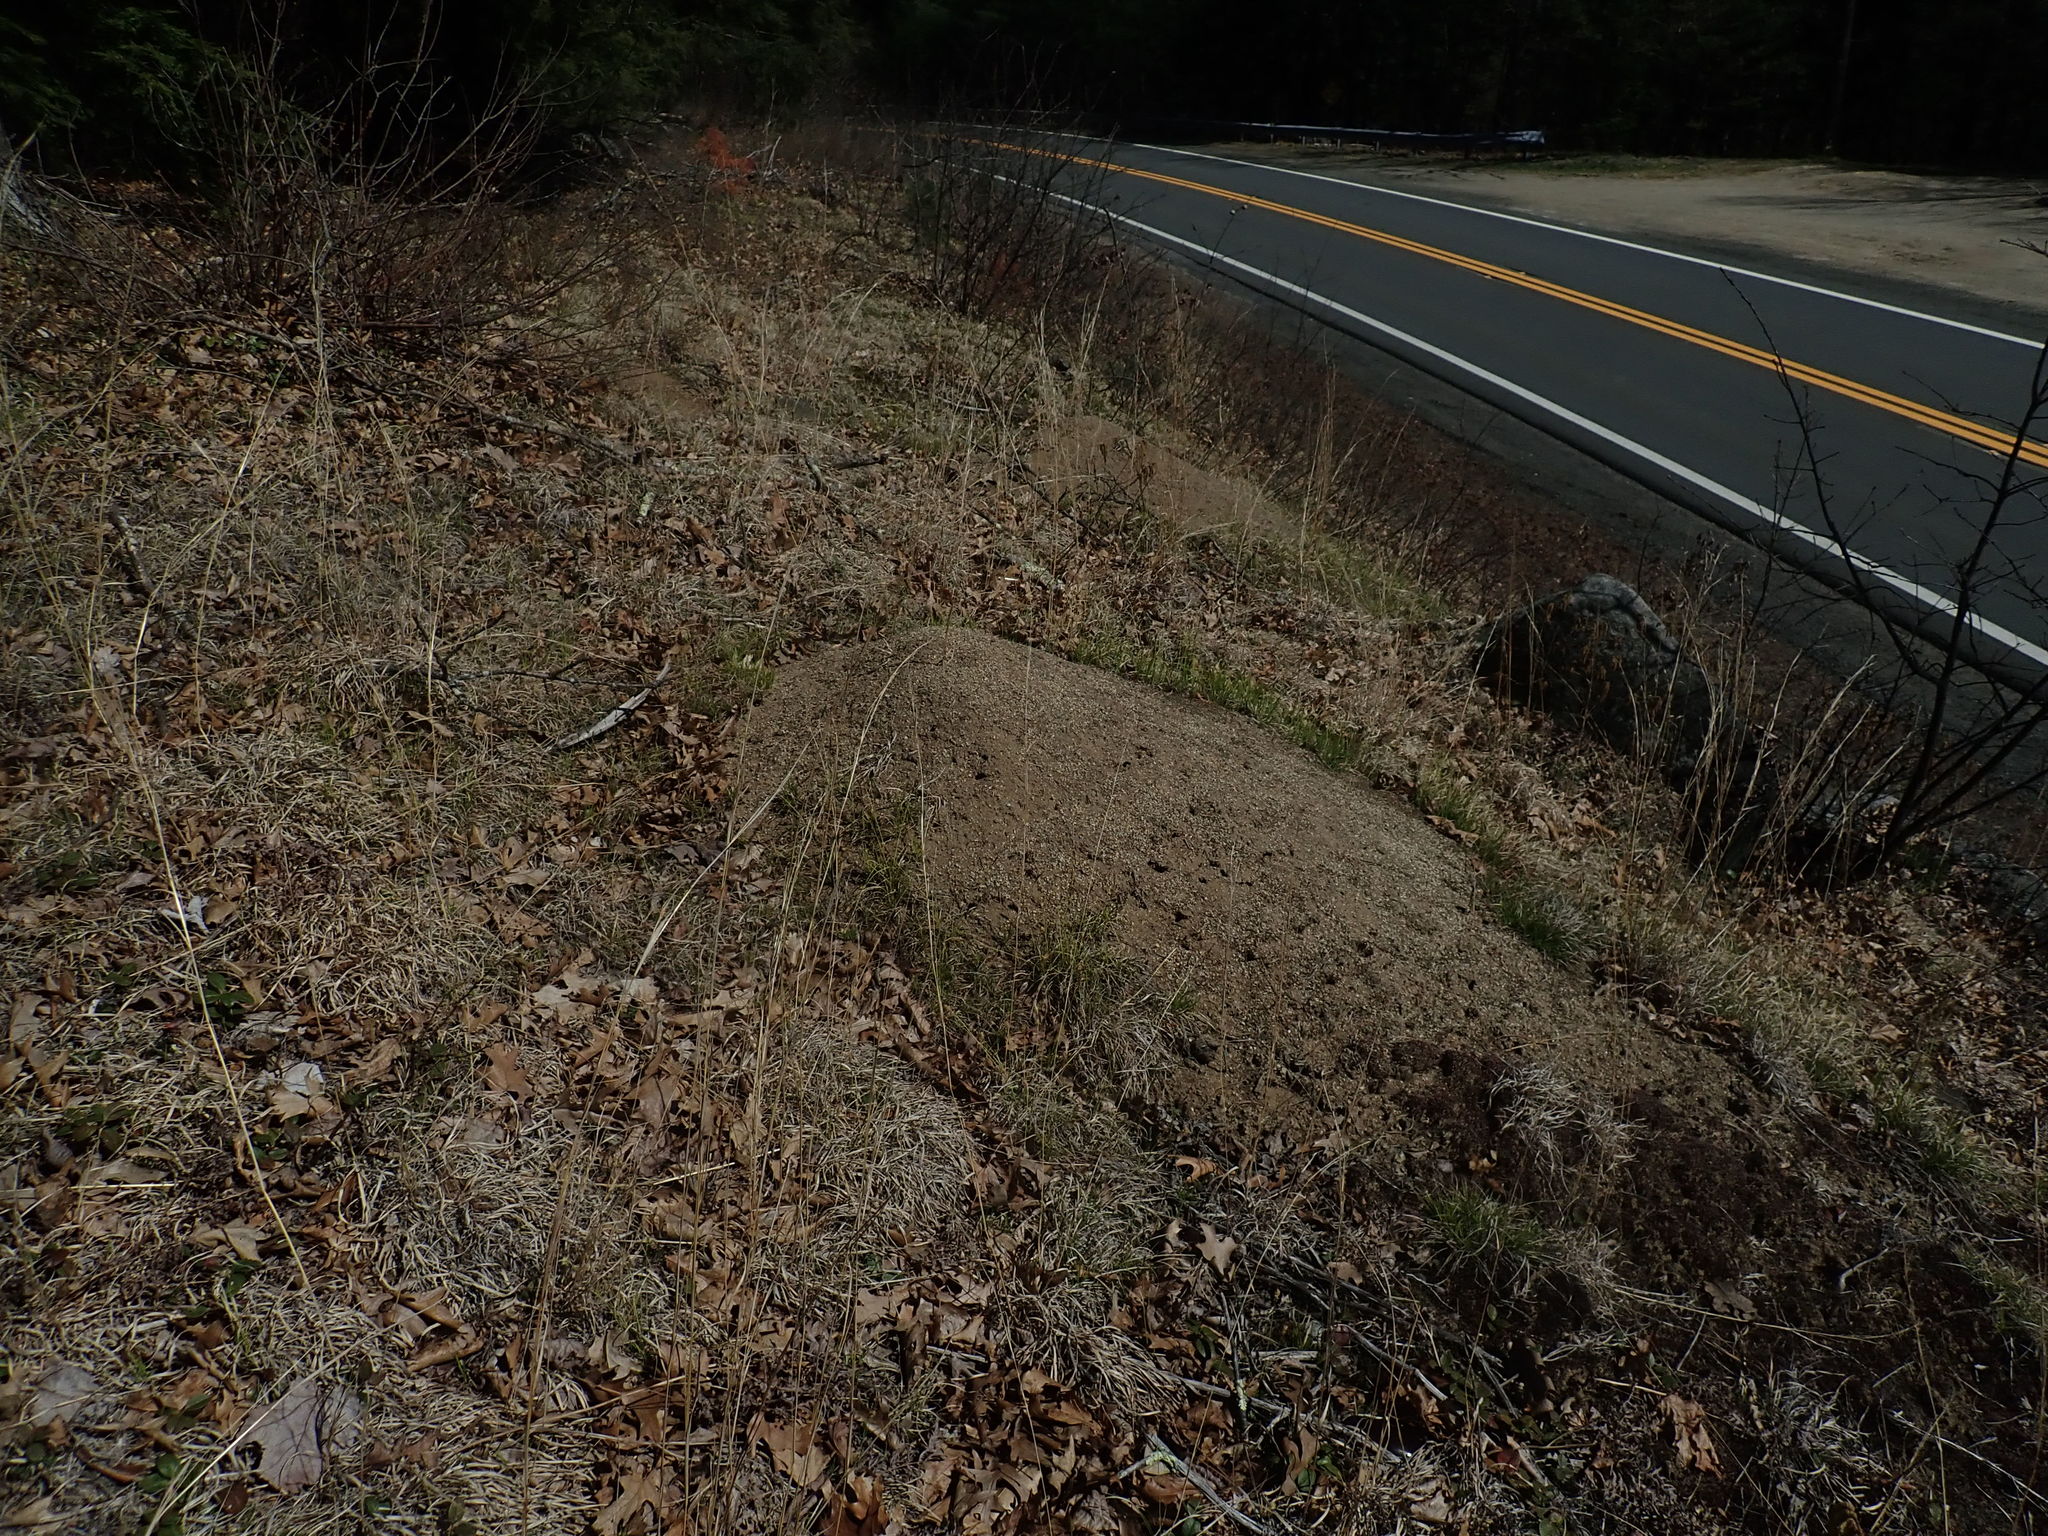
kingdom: Animalia
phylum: Arthropoda
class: Insecta
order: Hymenoptera
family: Formicidae
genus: Formica
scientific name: Formica exsectoides
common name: Allegheny mound ant
